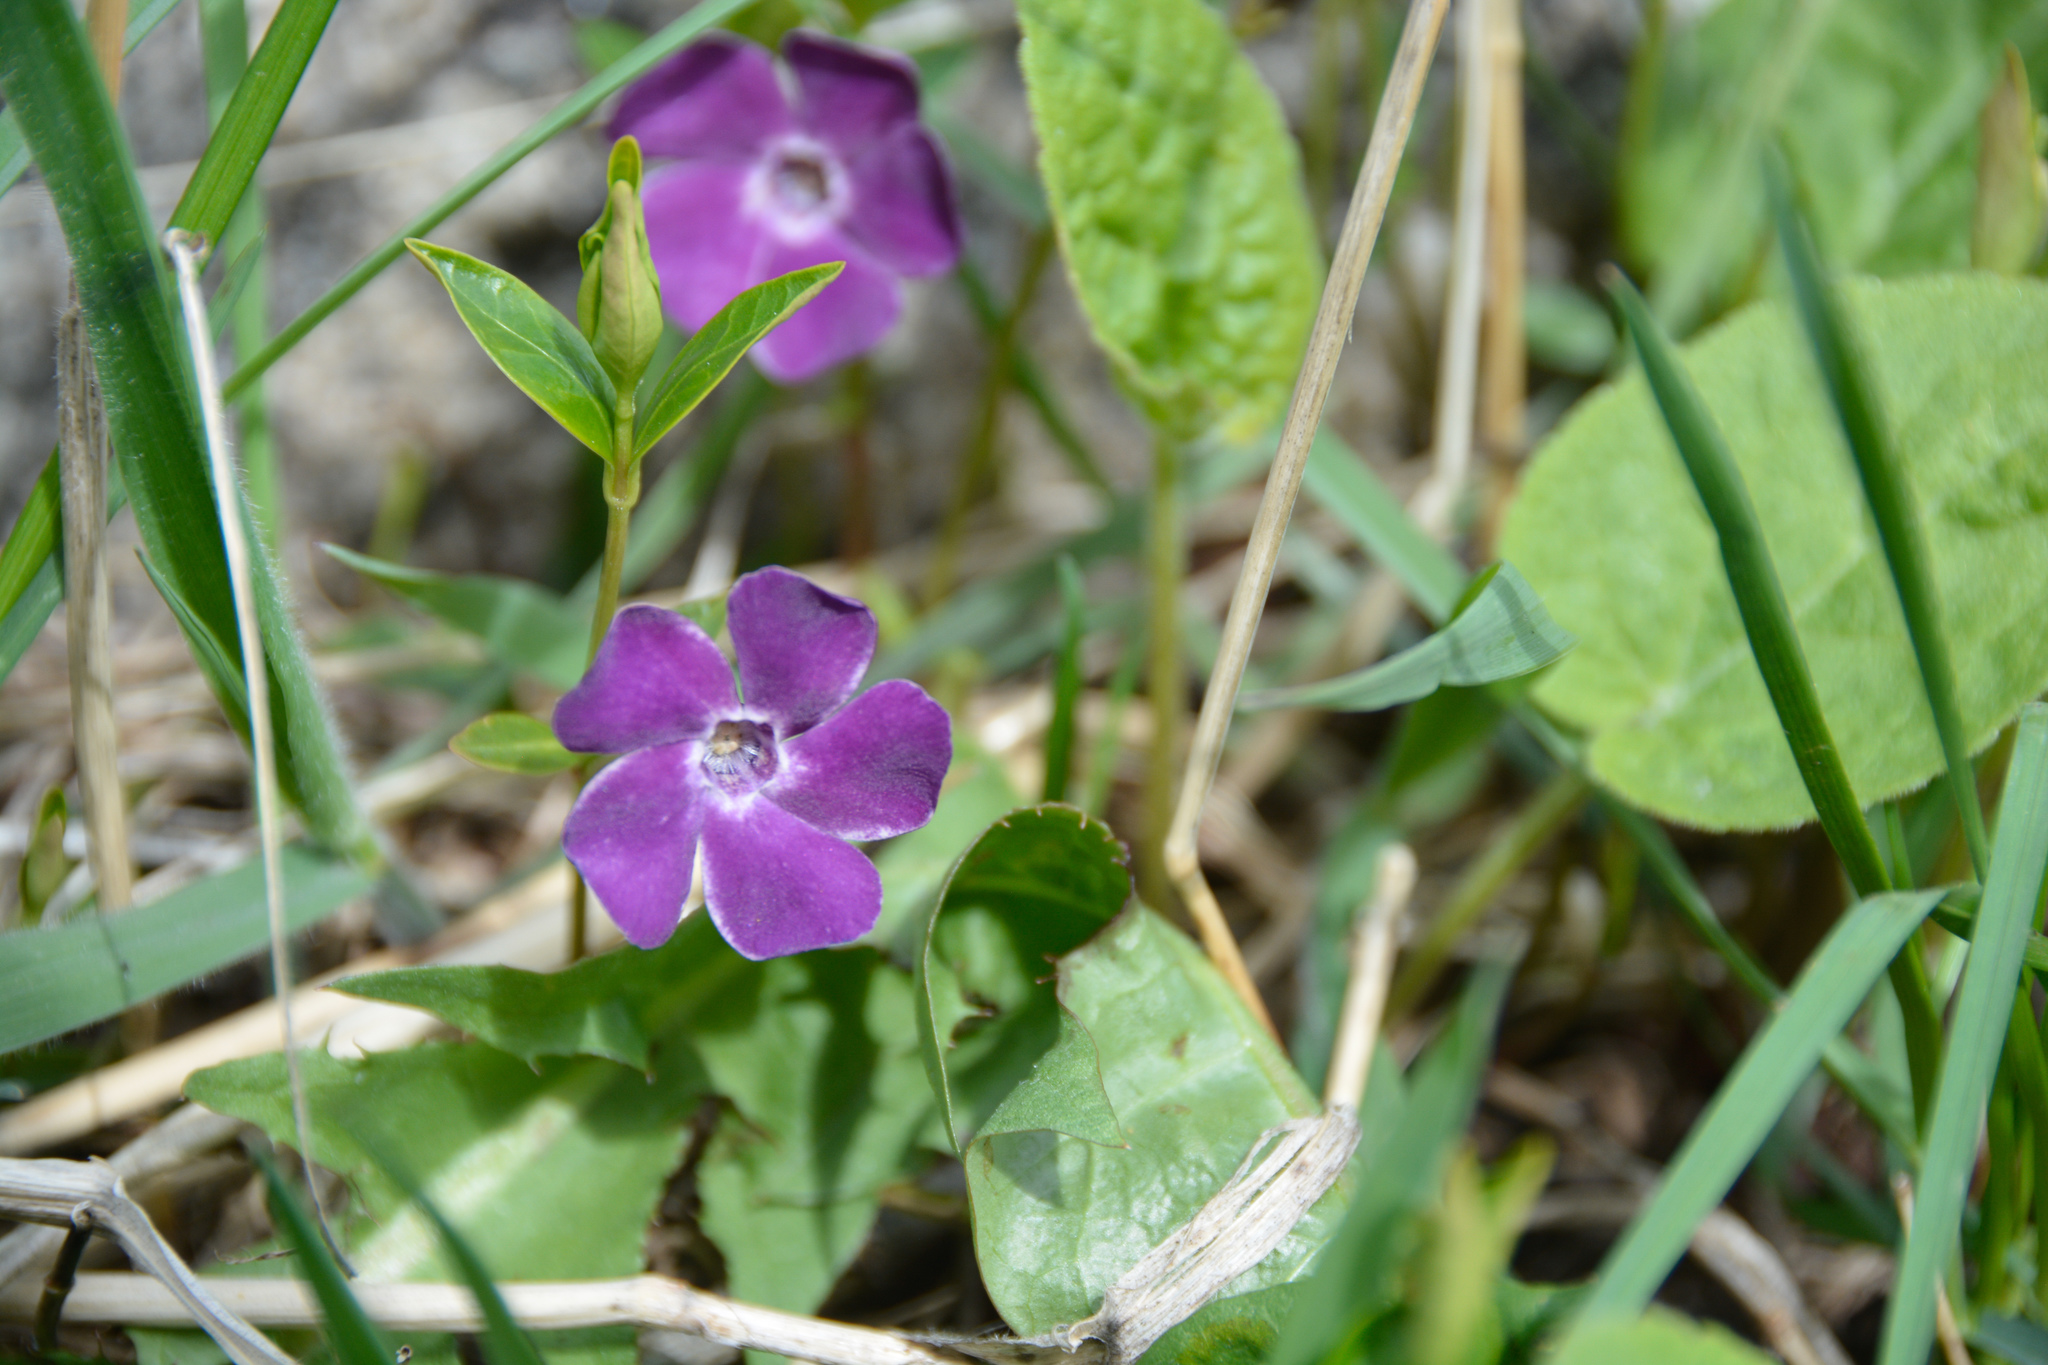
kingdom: Plantae
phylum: Tracheophyta
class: Magnoliopsida
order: Gentianales
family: Apocynaceae
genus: Vinca
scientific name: Vinca minor
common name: Lesser periwinkle
